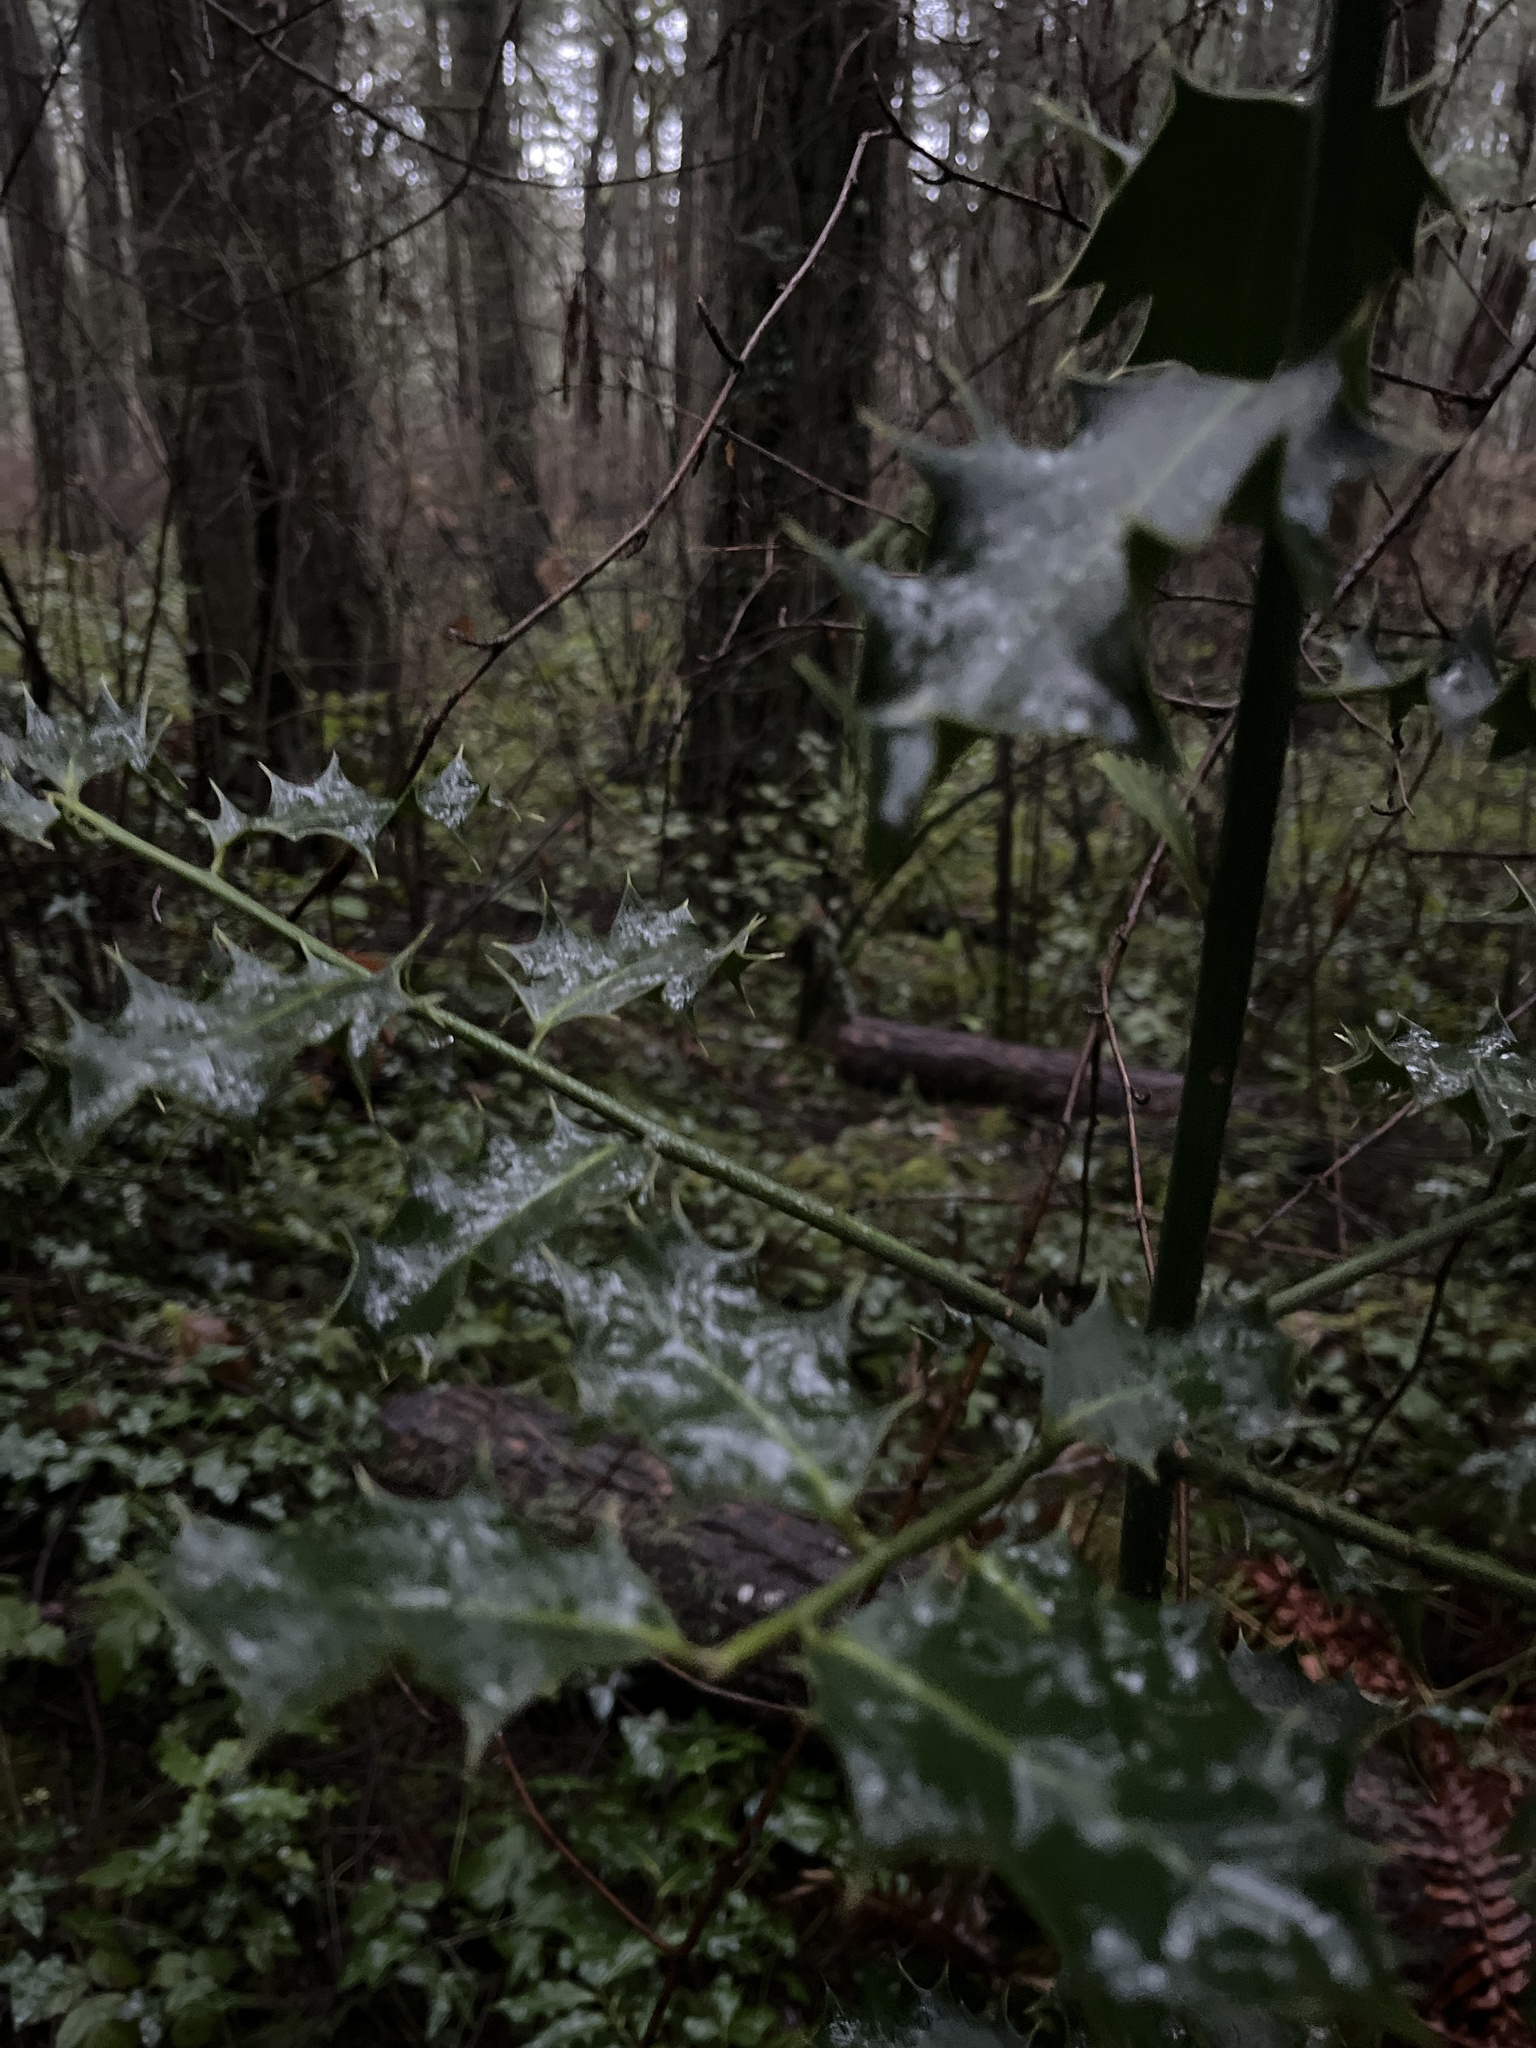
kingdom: Plantae
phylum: Tracheophyta
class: Magnoliopsida
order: Aquifoliales
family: Aquifoliaceae
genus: Ilex
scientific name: Ilex aquifolium
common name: English holly
